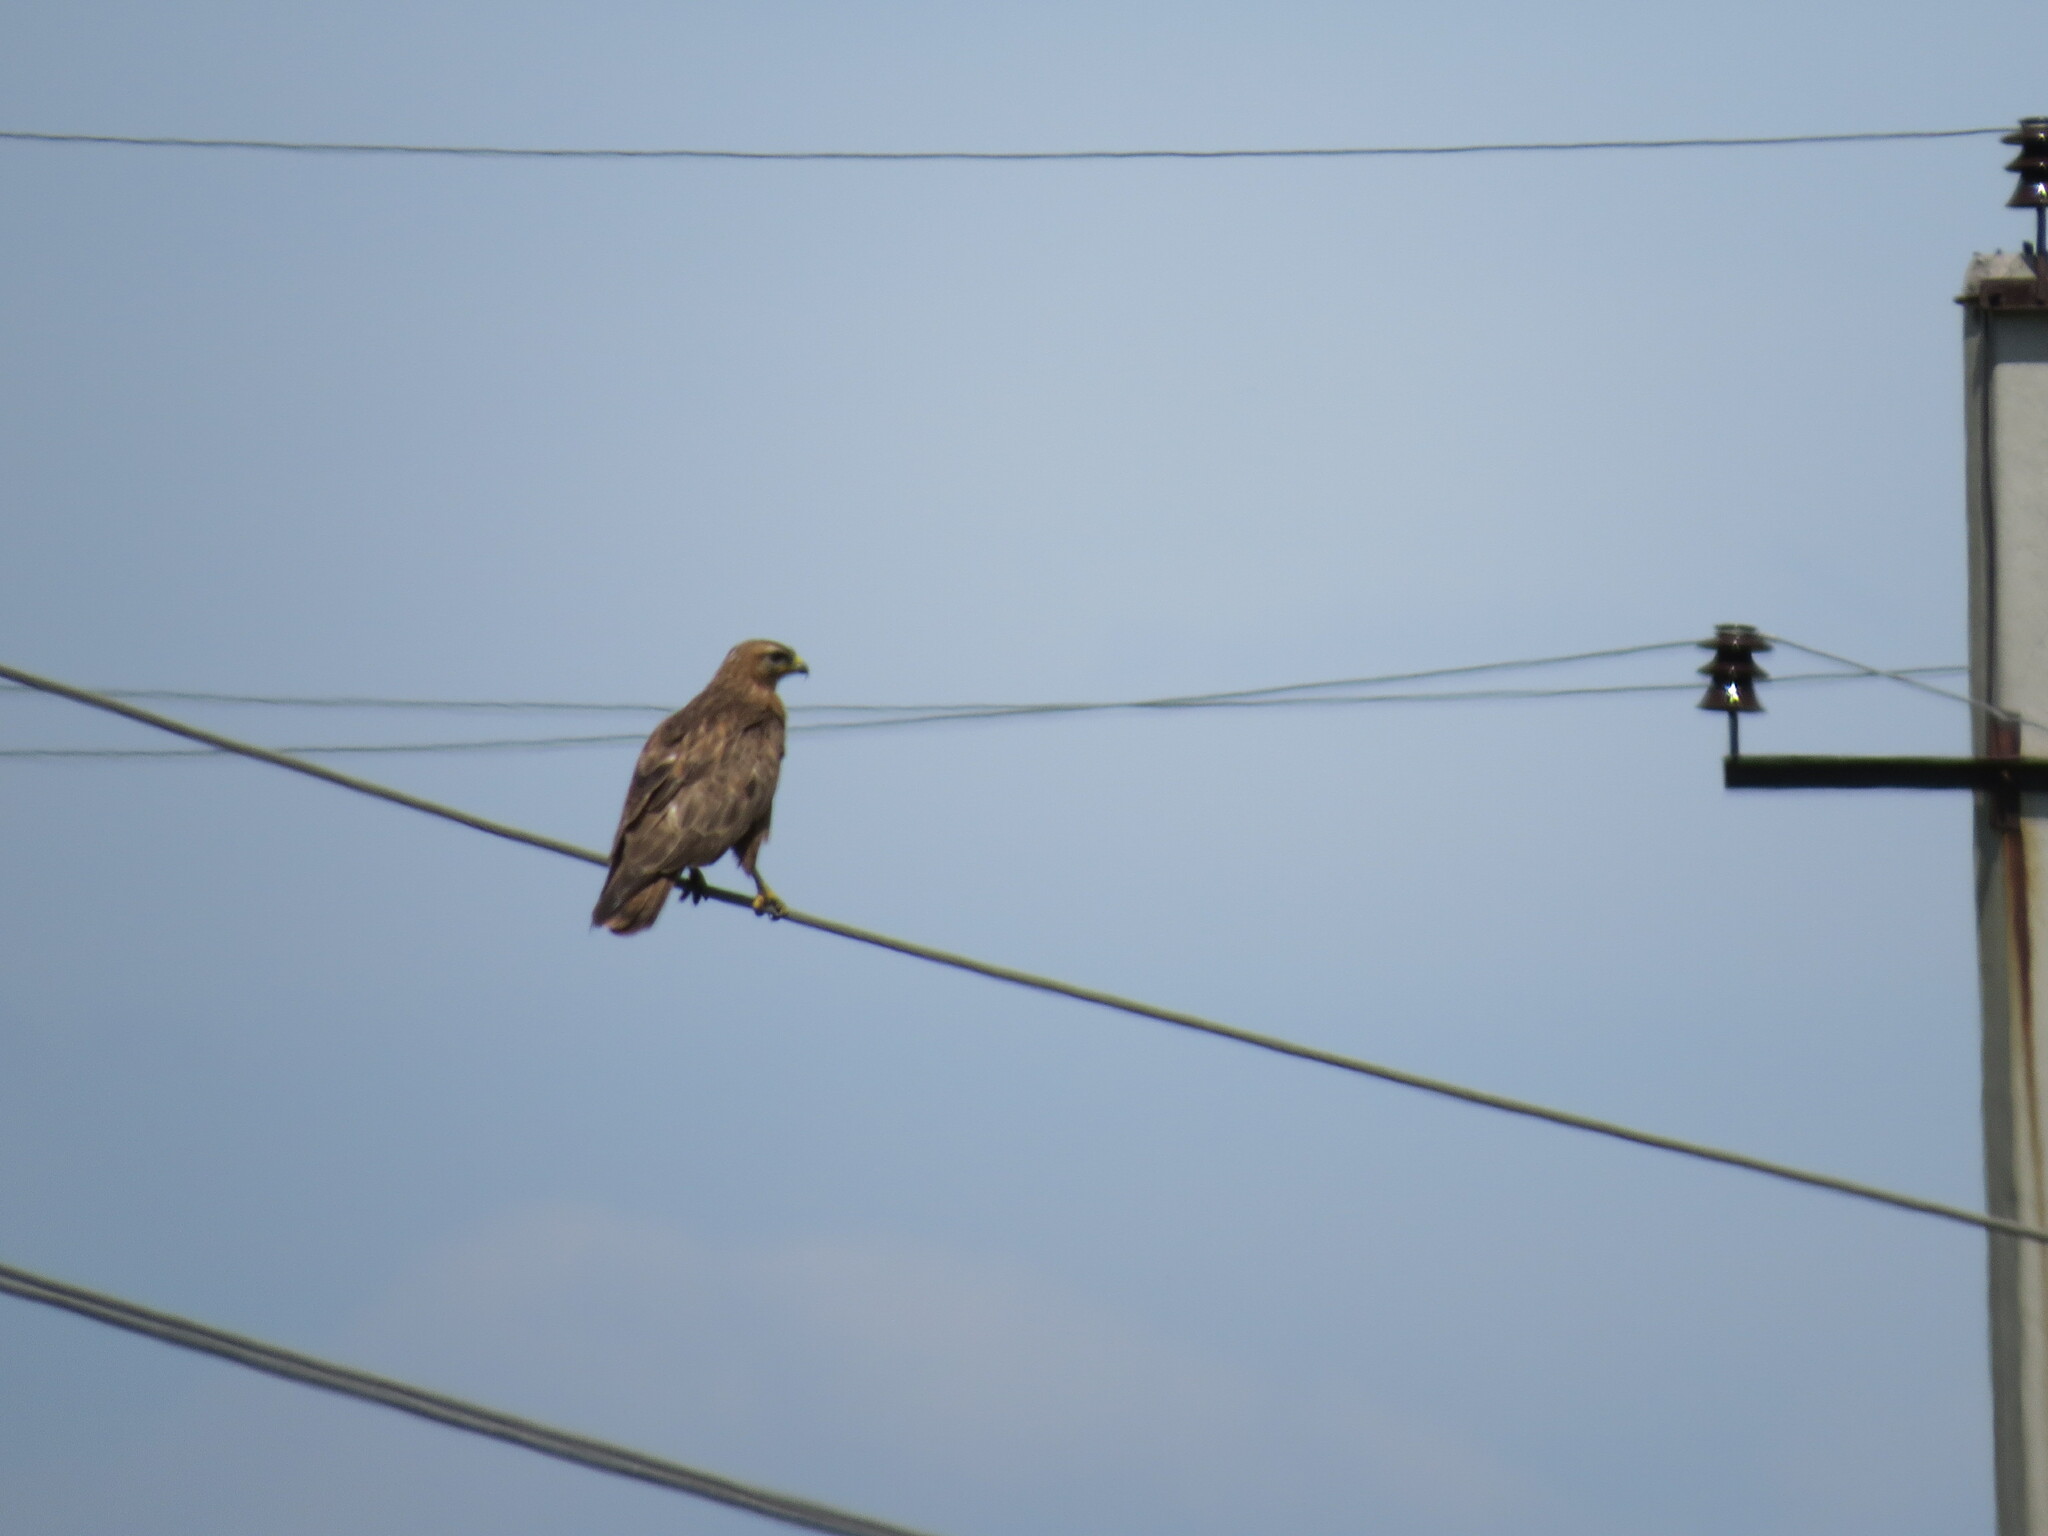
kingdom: Animalia
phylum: Chordata
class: Aves
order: Accipitriformes
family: Accipitridae
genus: Buteo
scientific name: Buteo buteo
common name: Common buzzard
